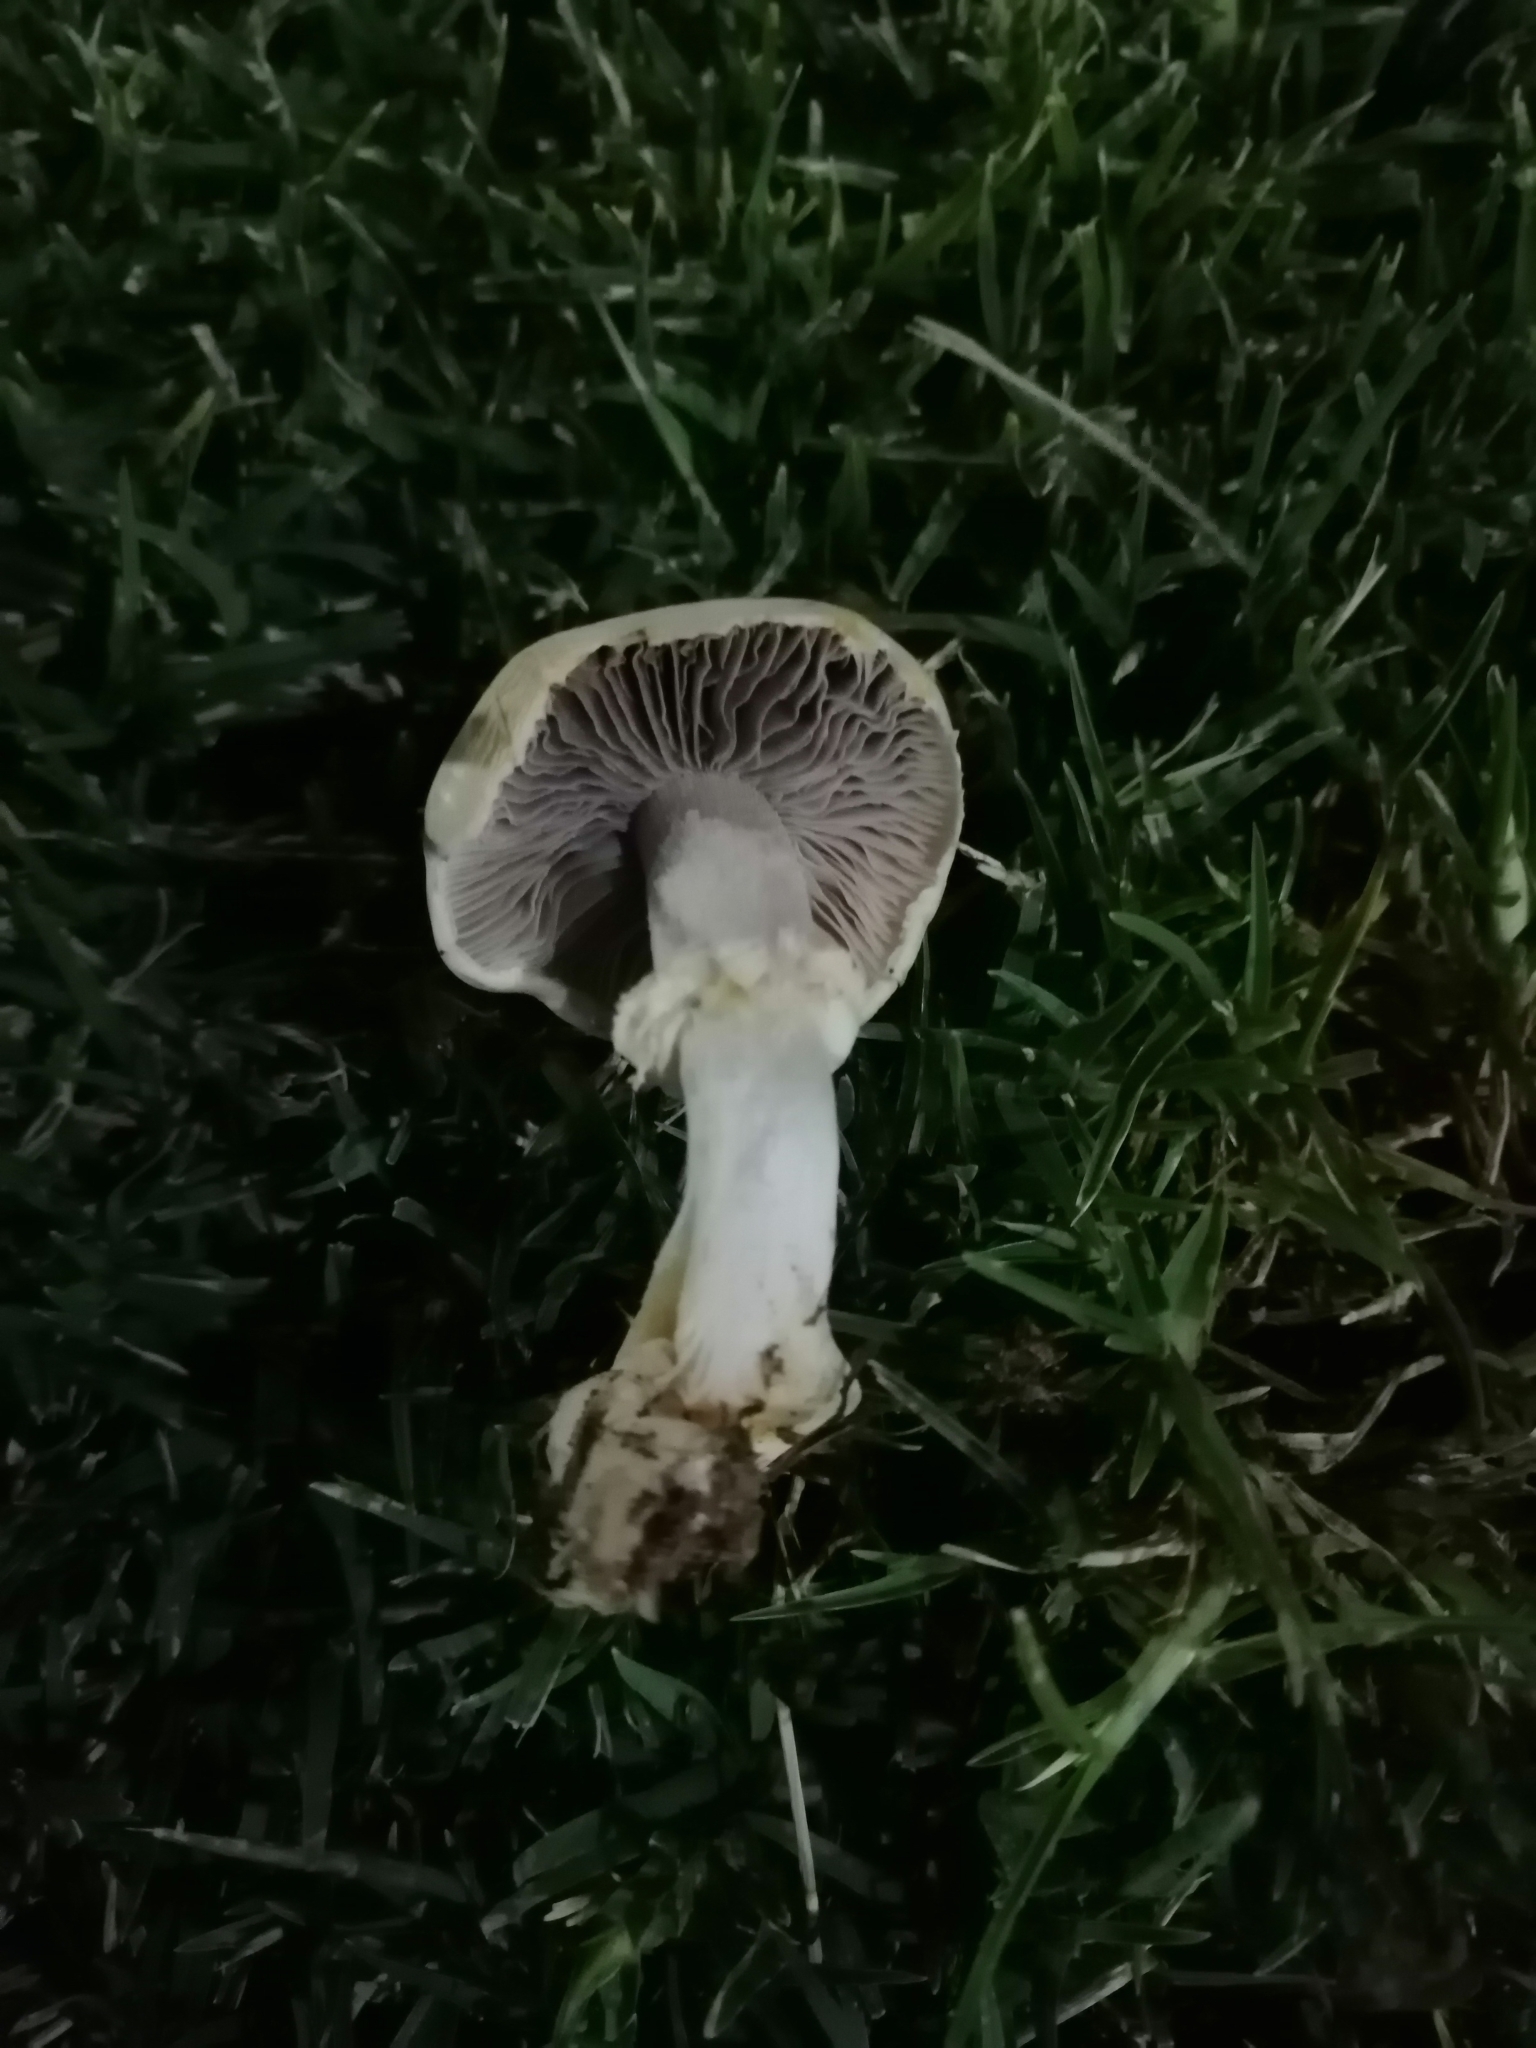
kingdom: Fungi
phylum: Basidiomycota
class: Agaricomycetes
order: Agaricales
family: Hymenogastraceae
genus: Psilocybe
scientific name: Psilocybe coronilla
